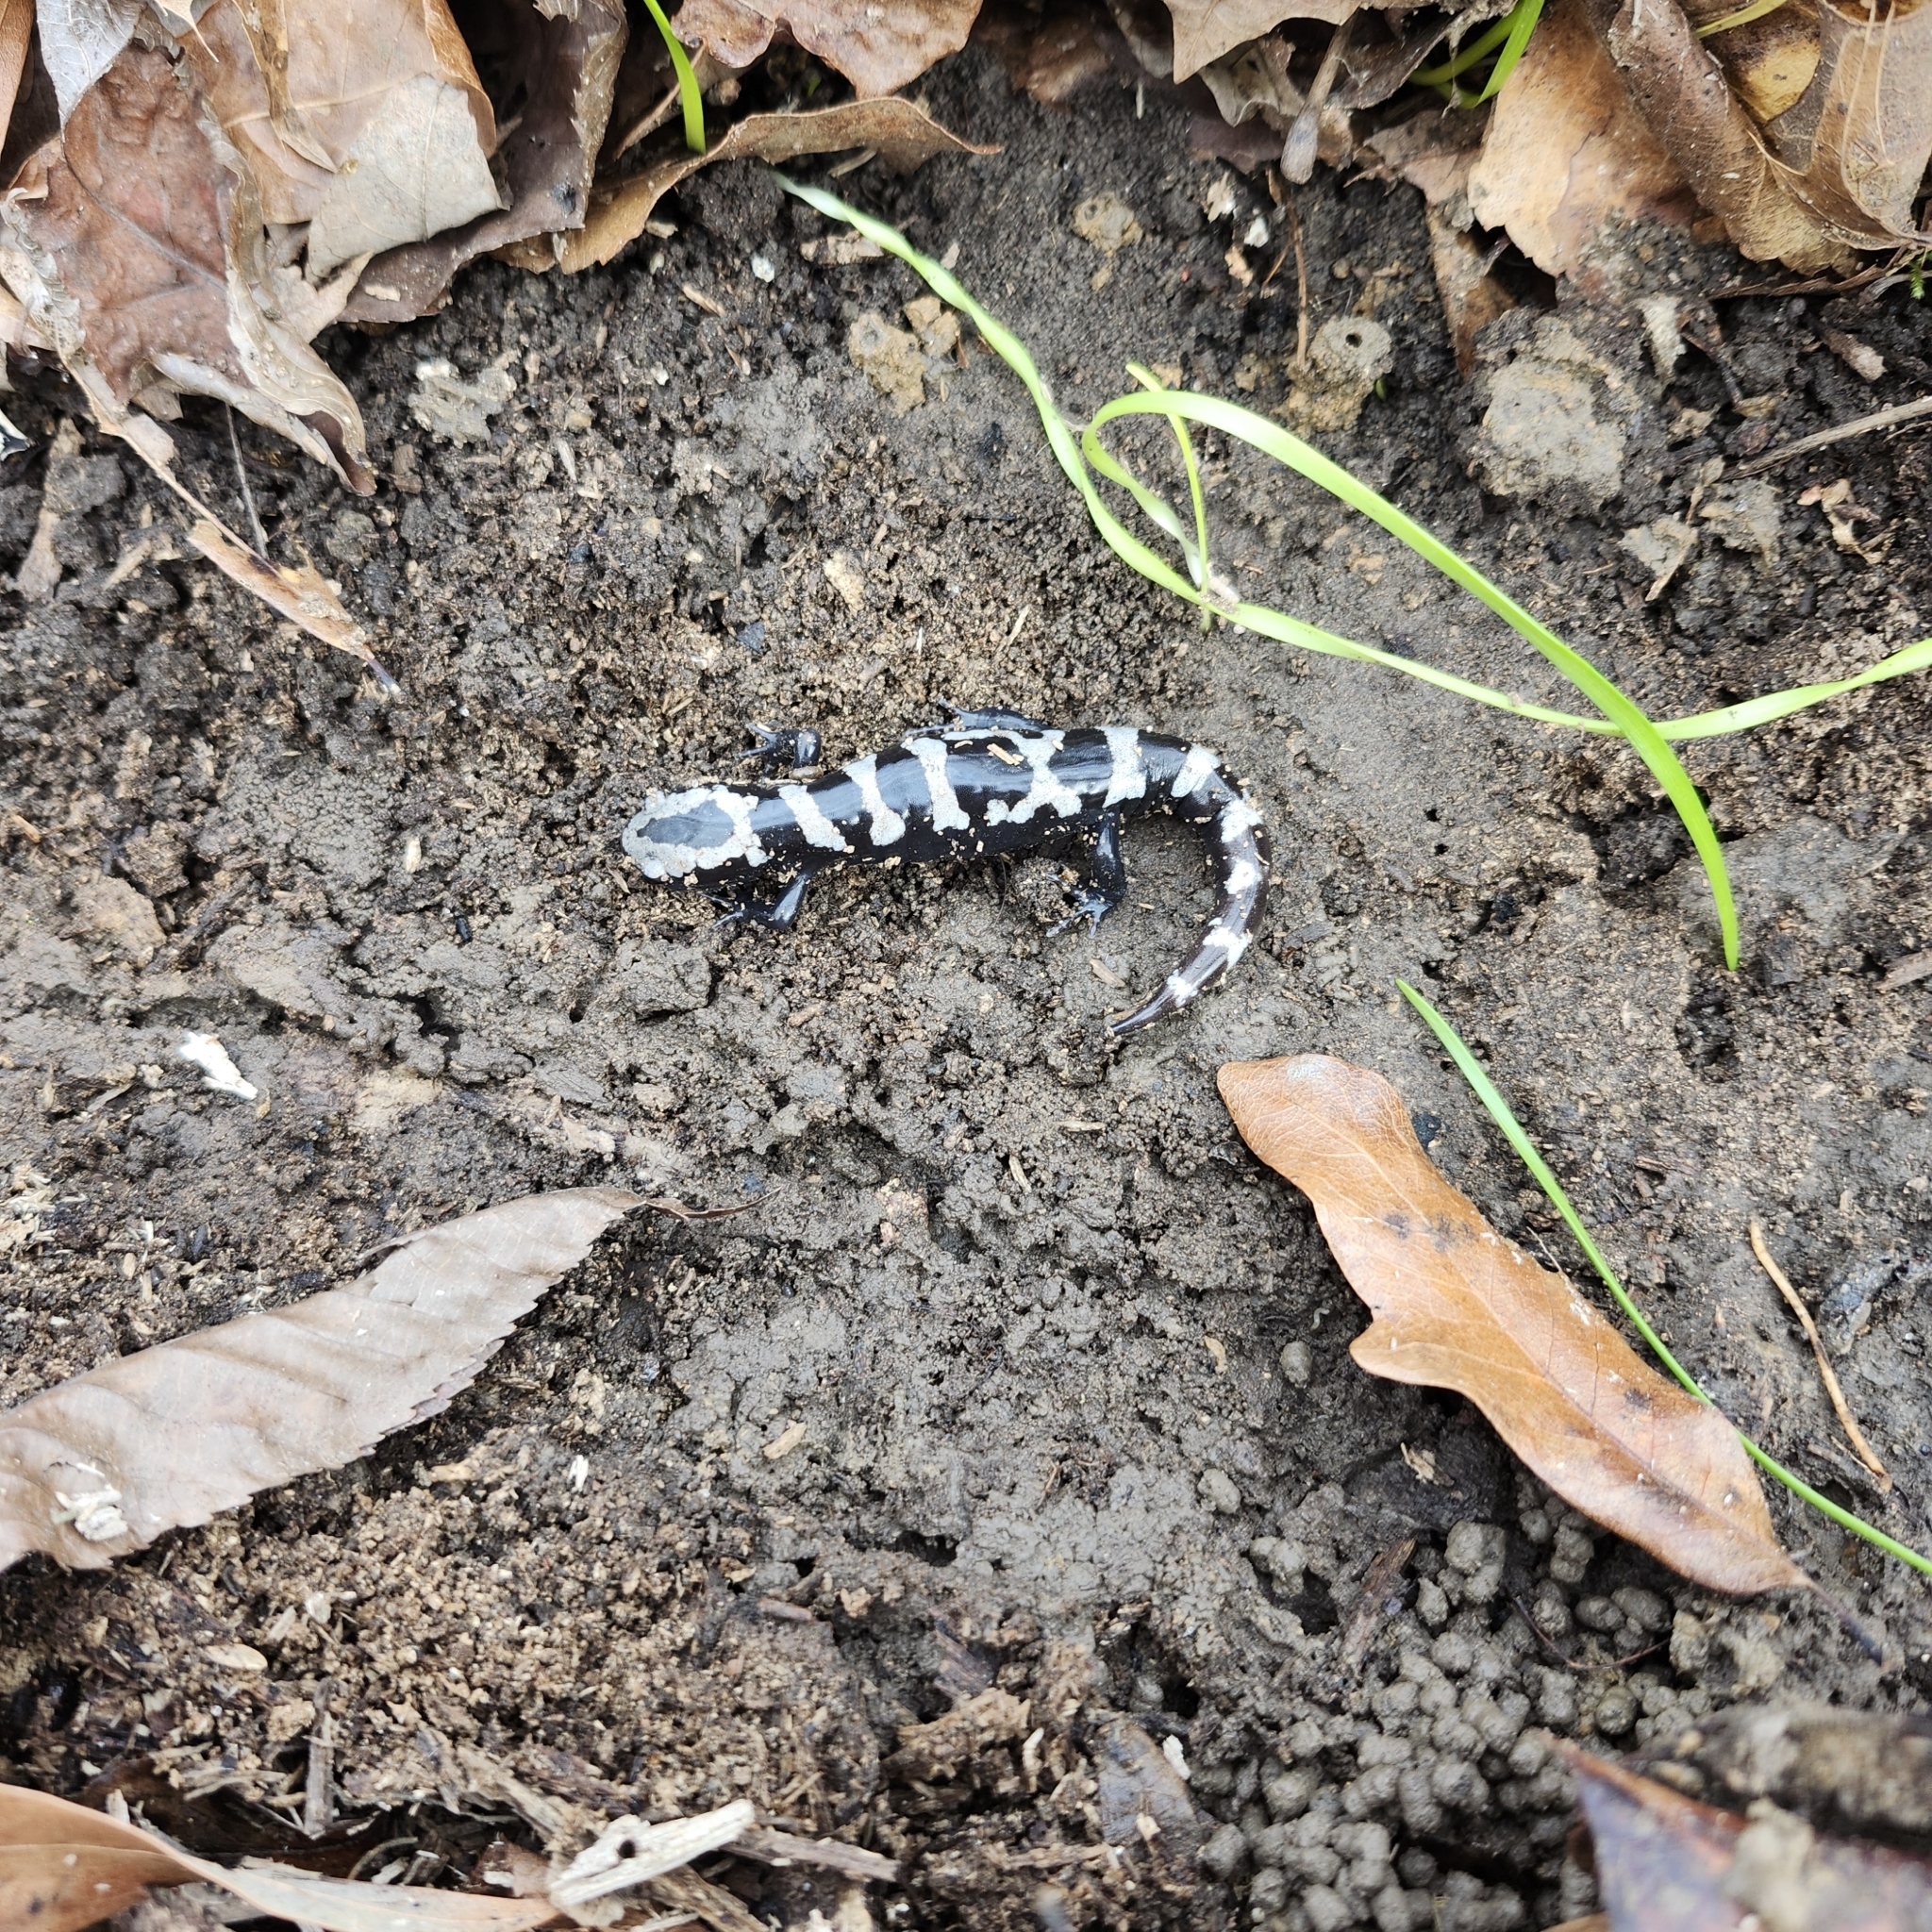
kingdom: Animalia
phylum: Chordata
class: Amphibia
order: Caudata
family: Ambystomatidae
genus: Ambystoma
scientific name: Ambystoma opacum
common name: Marbled salamander
